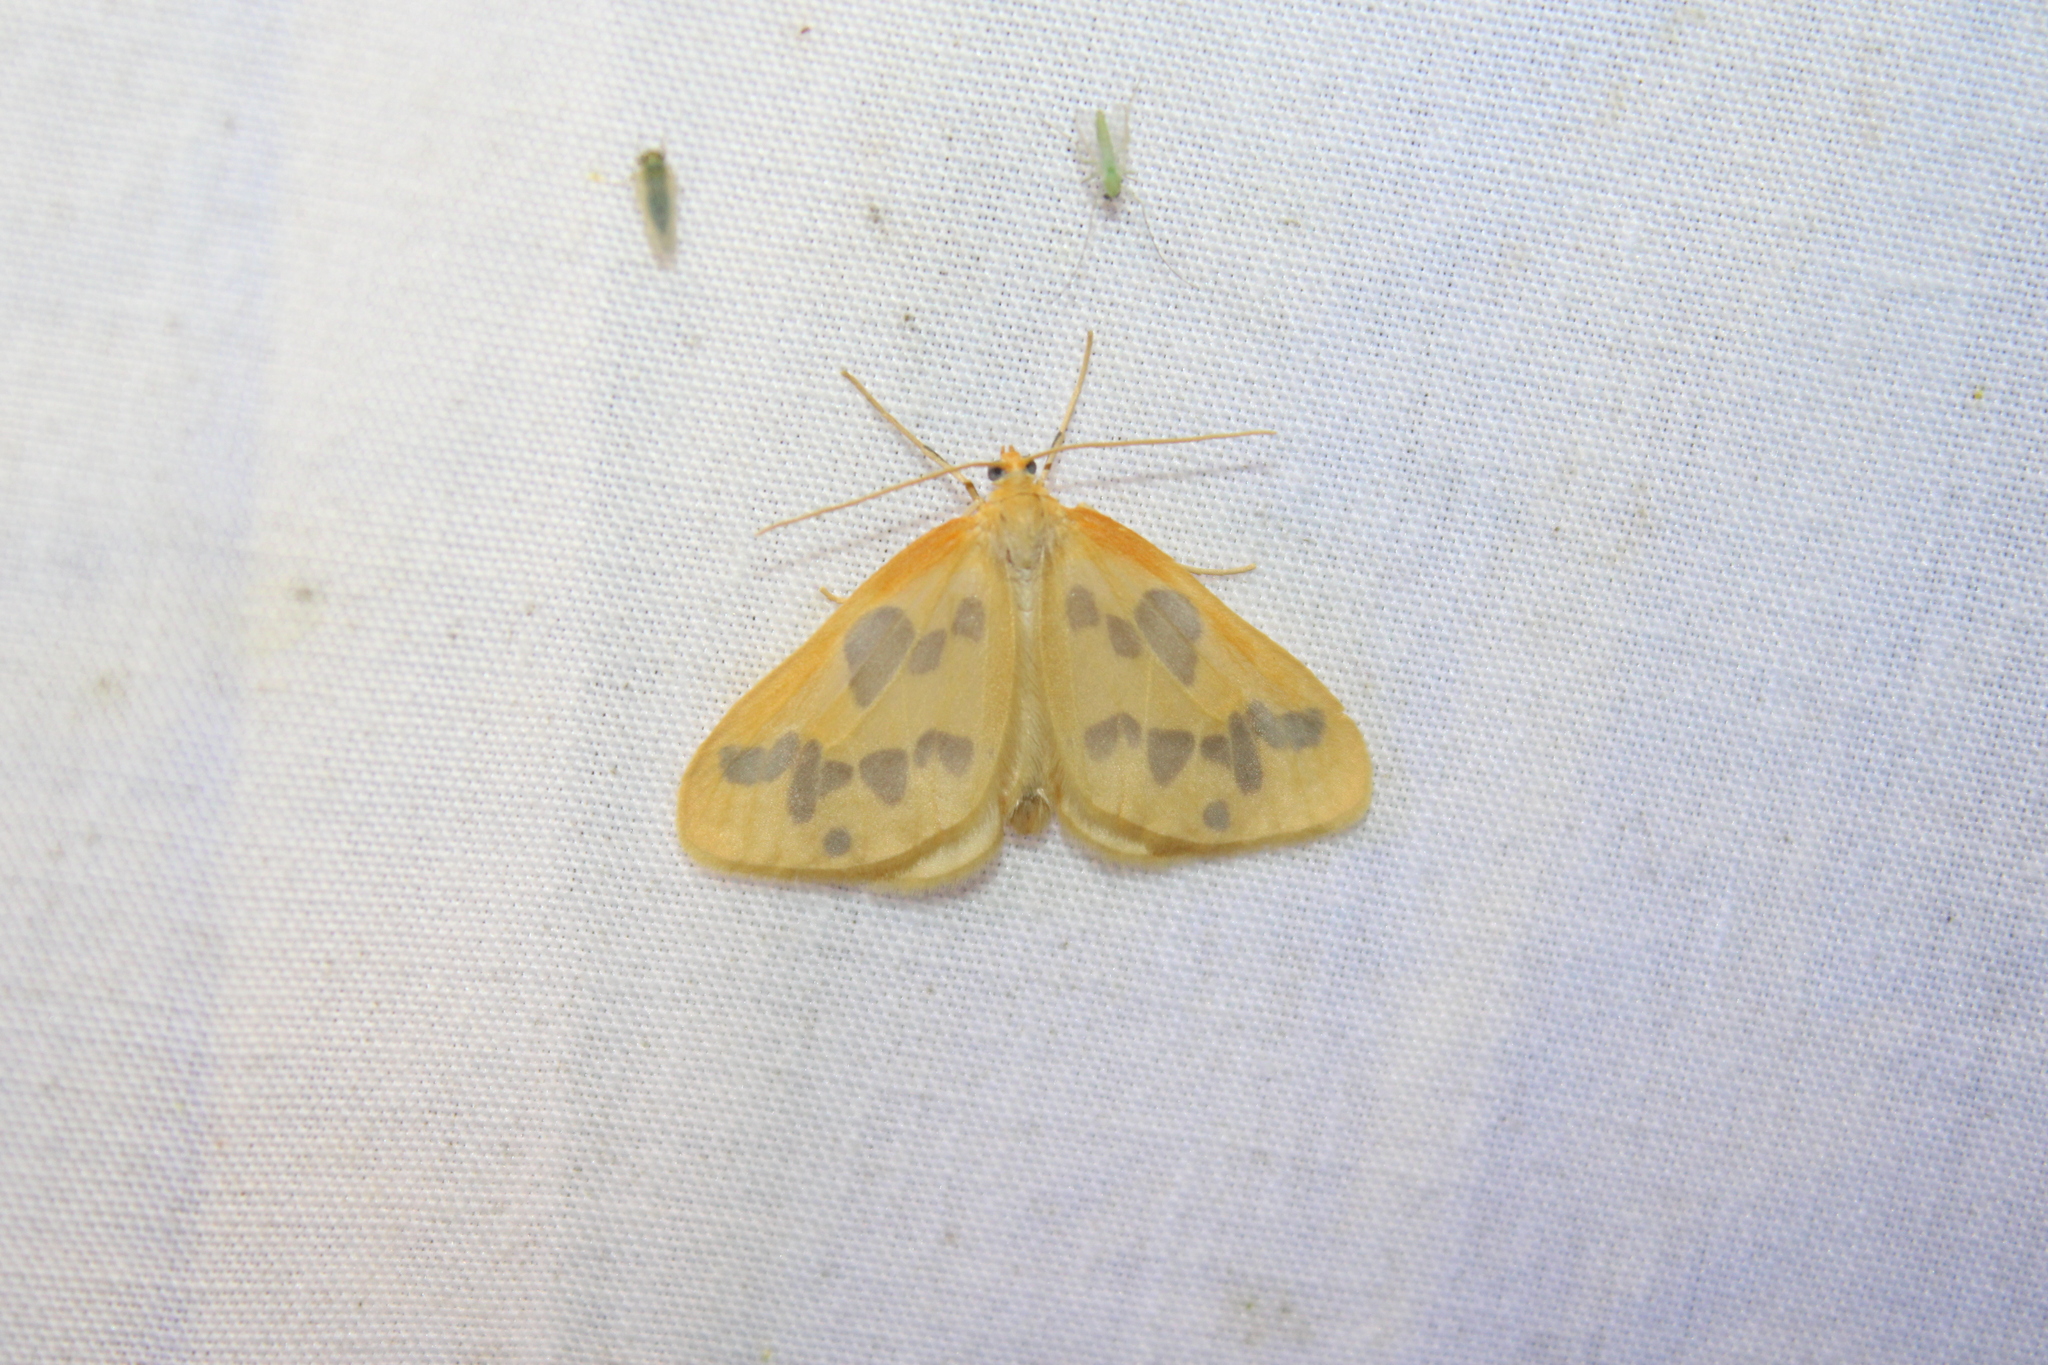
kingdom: Animalia
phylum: Arthropoda
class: Insecta
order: Lepidoptera
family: Geometridae
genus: Eubaphe
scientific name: Eubaphe mendica
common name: Beggar
